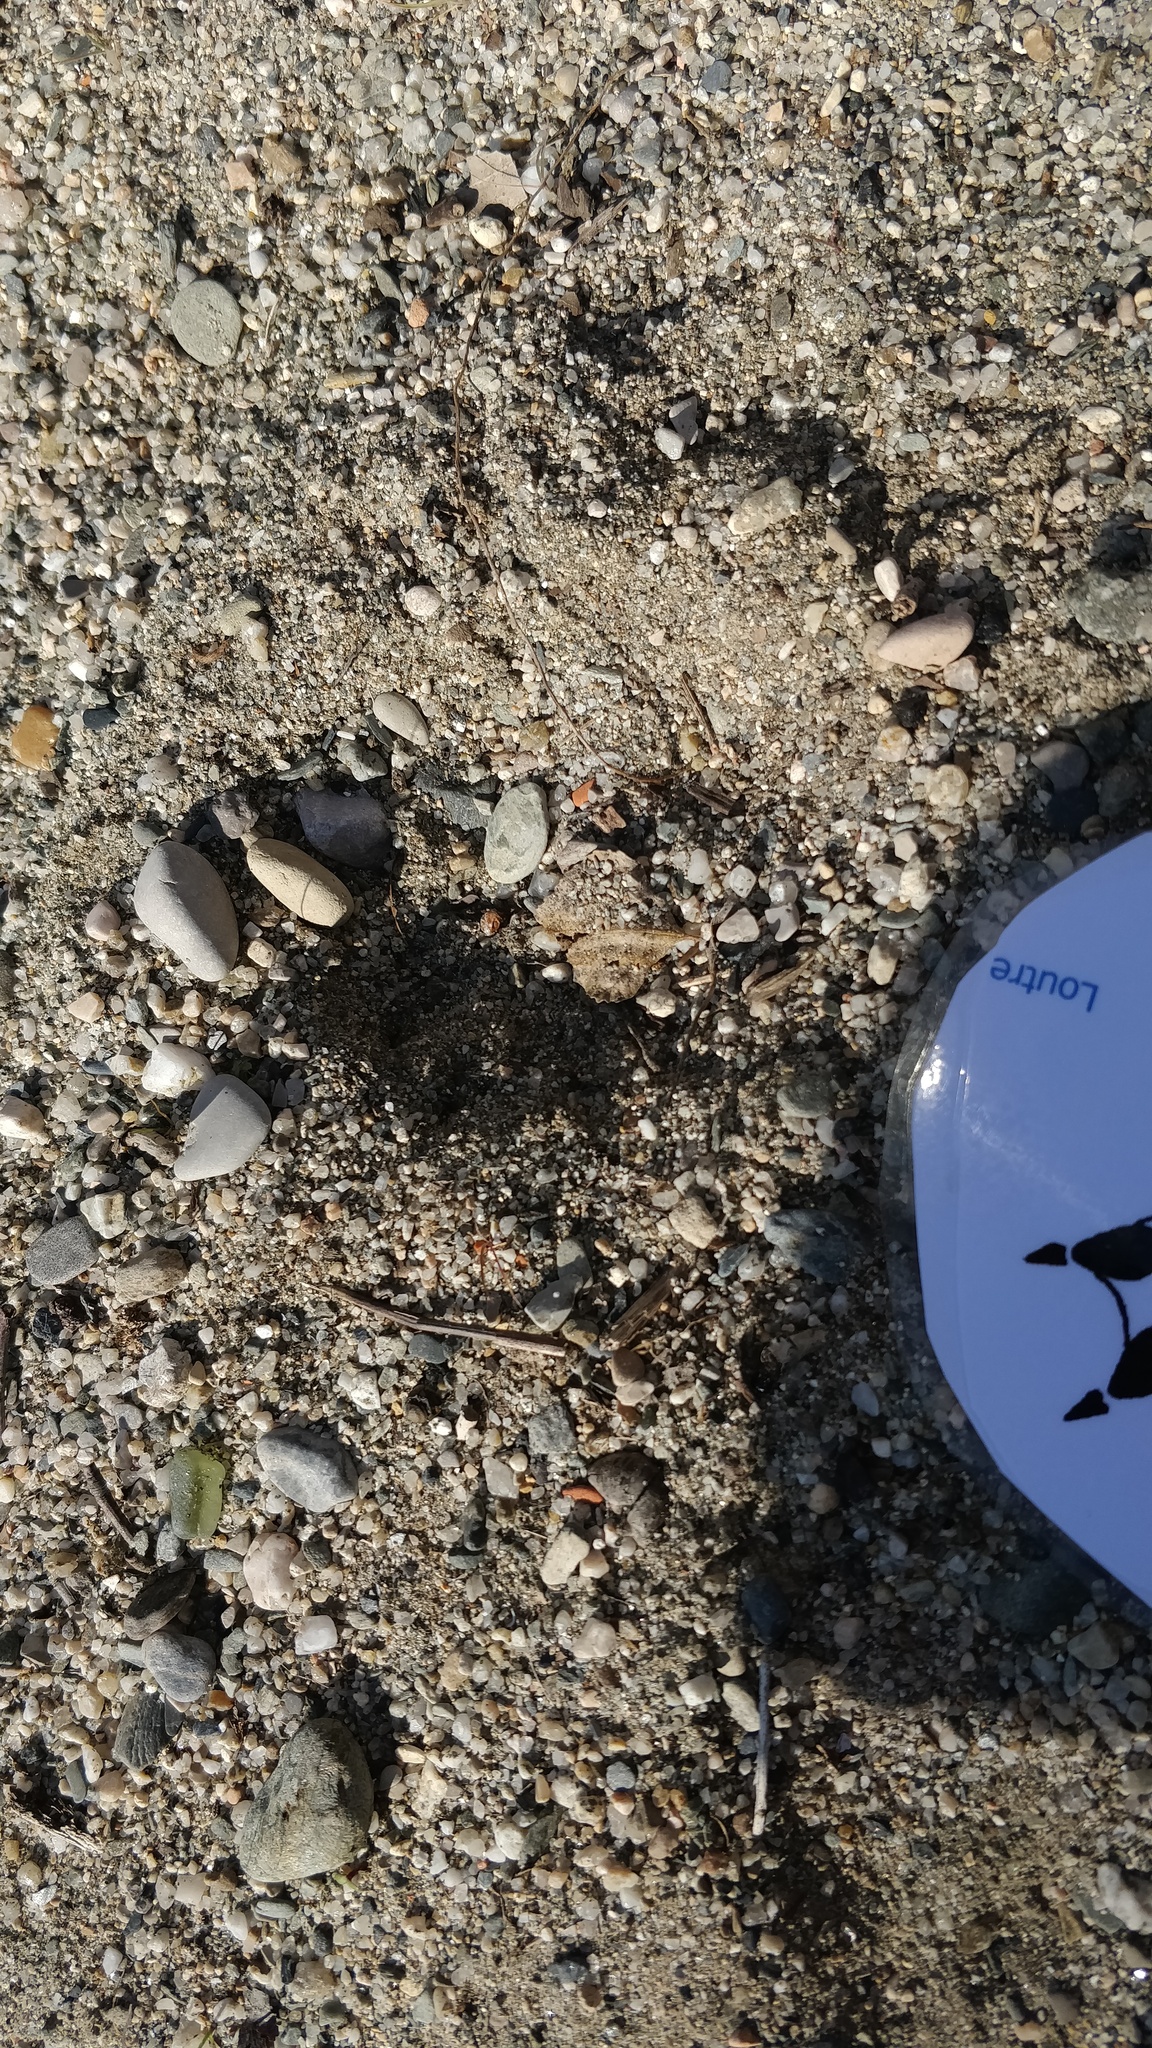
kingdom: Animalia
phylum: Chordata
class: Mammalia
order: Carnivora
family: Mustelidae
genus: Lutra
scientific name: Lutra lutra
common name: European otter
